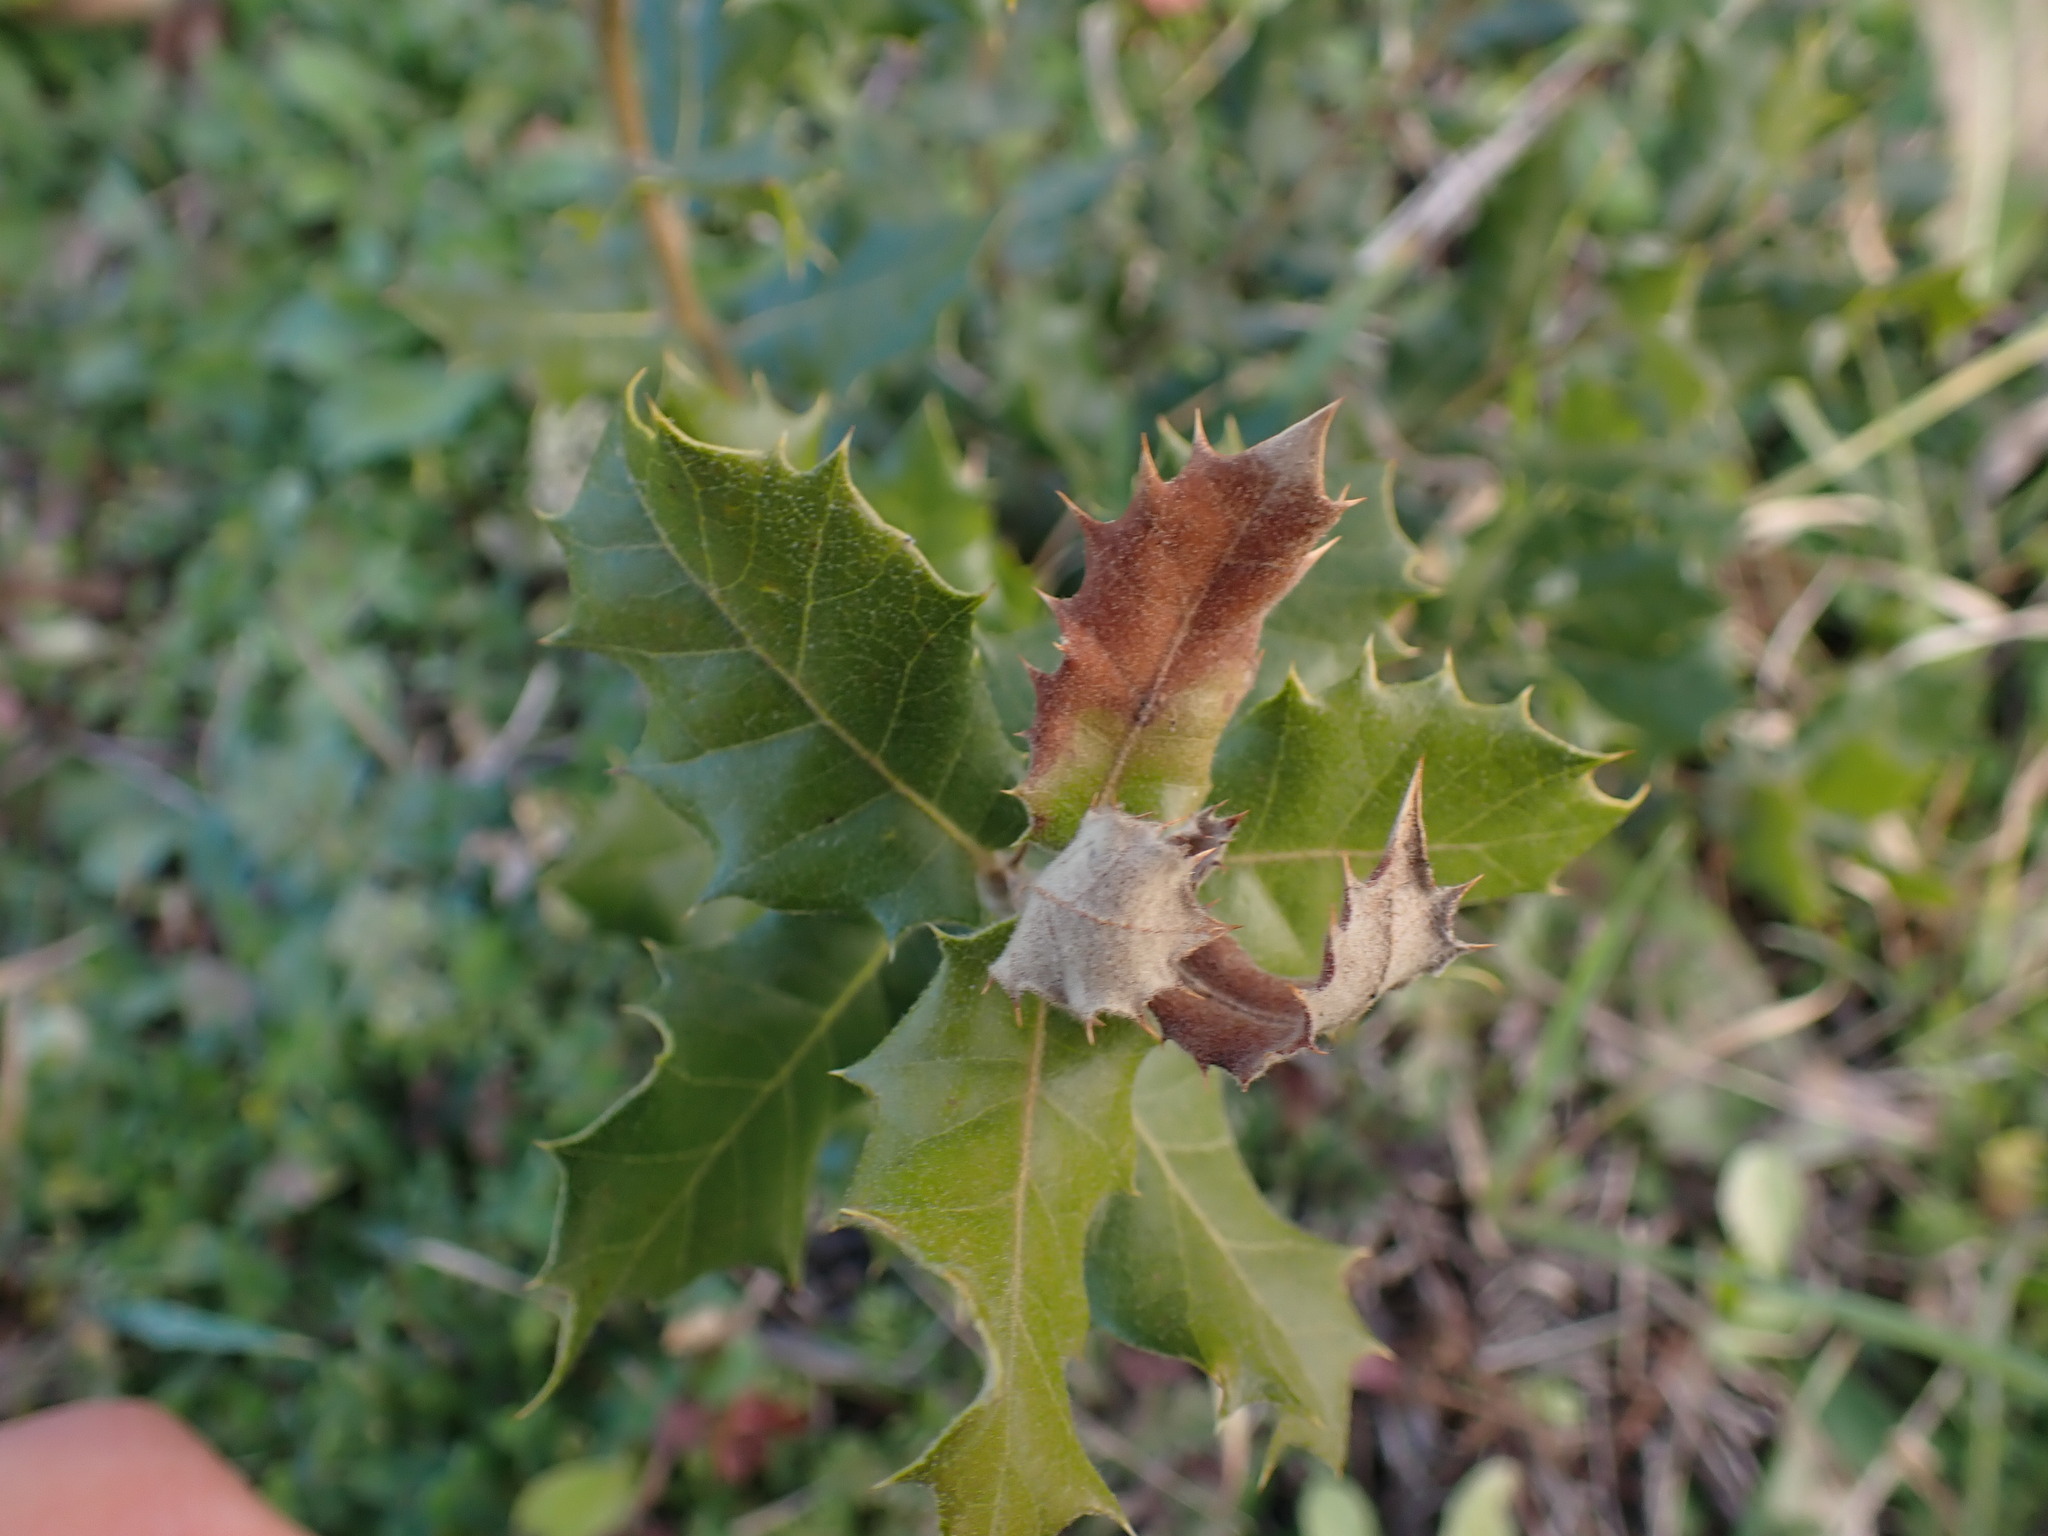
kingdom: Plantae
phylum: Tracheophyta
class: Magnoliopsida
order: Fagales
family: Fagaceae
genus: Quercus
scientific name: Quercus ilex
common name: Evergreen oak
